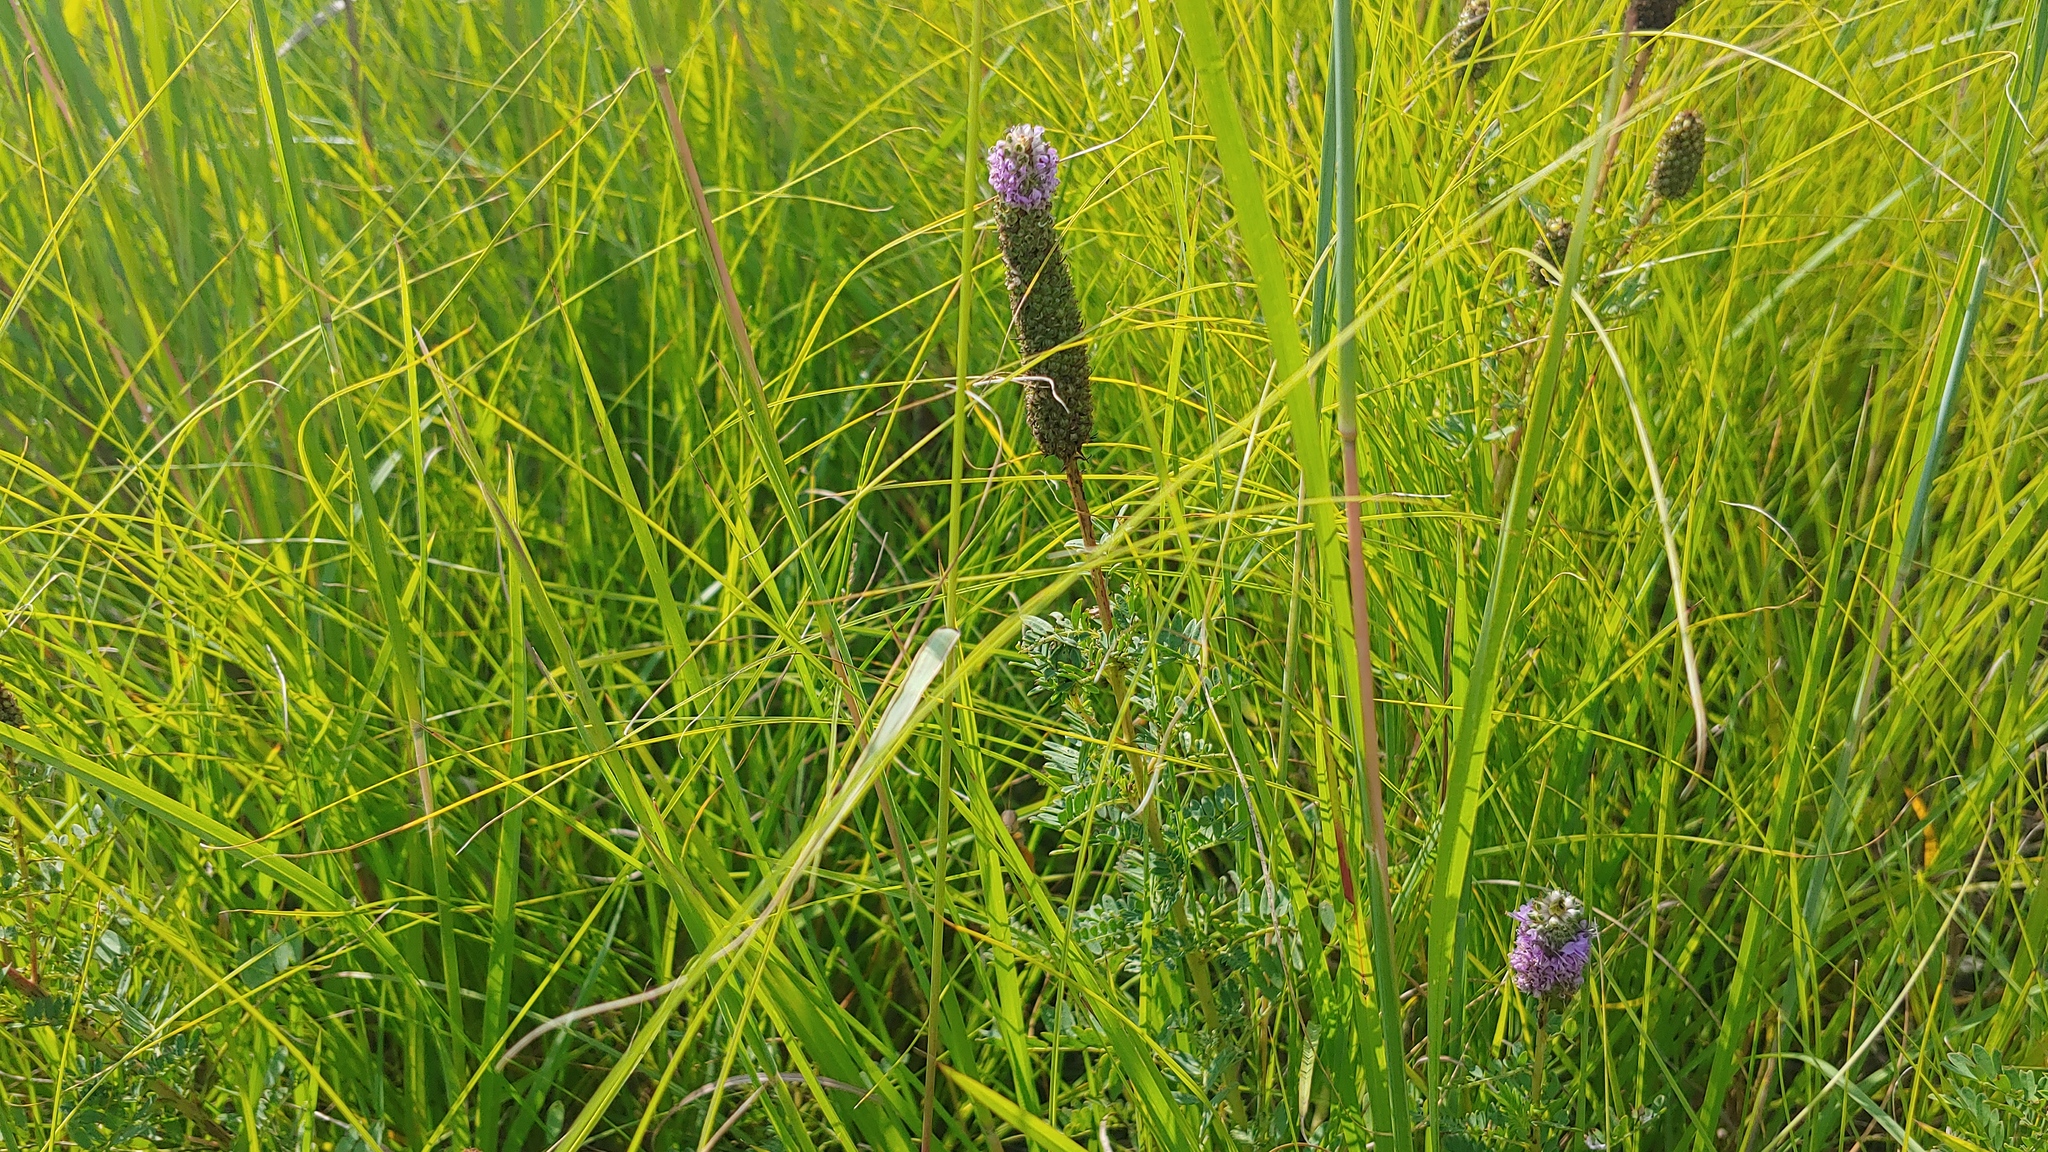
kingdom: Plantae
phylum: Tracheophyta
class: Magnoliopsida
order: Fabales
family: Fabaceae
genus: Dalea
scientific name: Dalea foliosa
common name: Leafy prairie-clover
